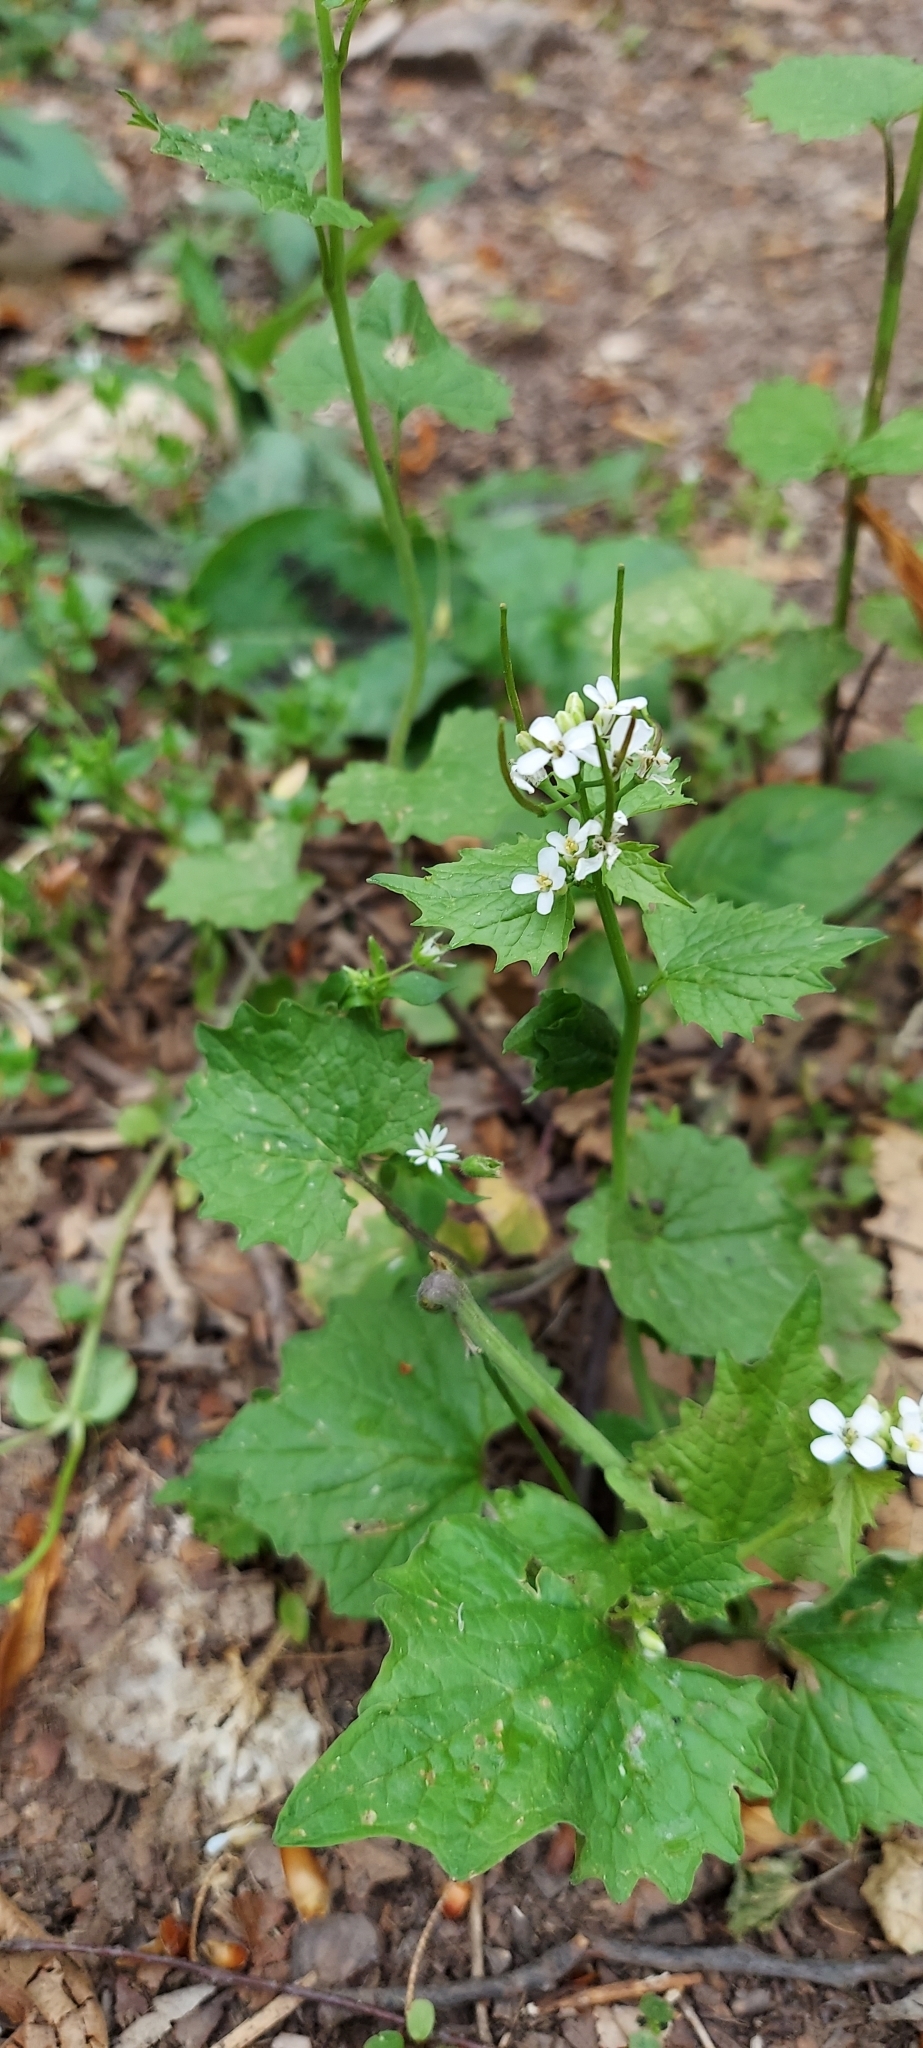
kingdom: Plantae
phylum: Tracheophyta
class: Magnoliopsida
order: Brassicales
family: Brassicaceae
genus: Alliaria
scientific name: Alliaria petiolata
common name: Garlic mustard
